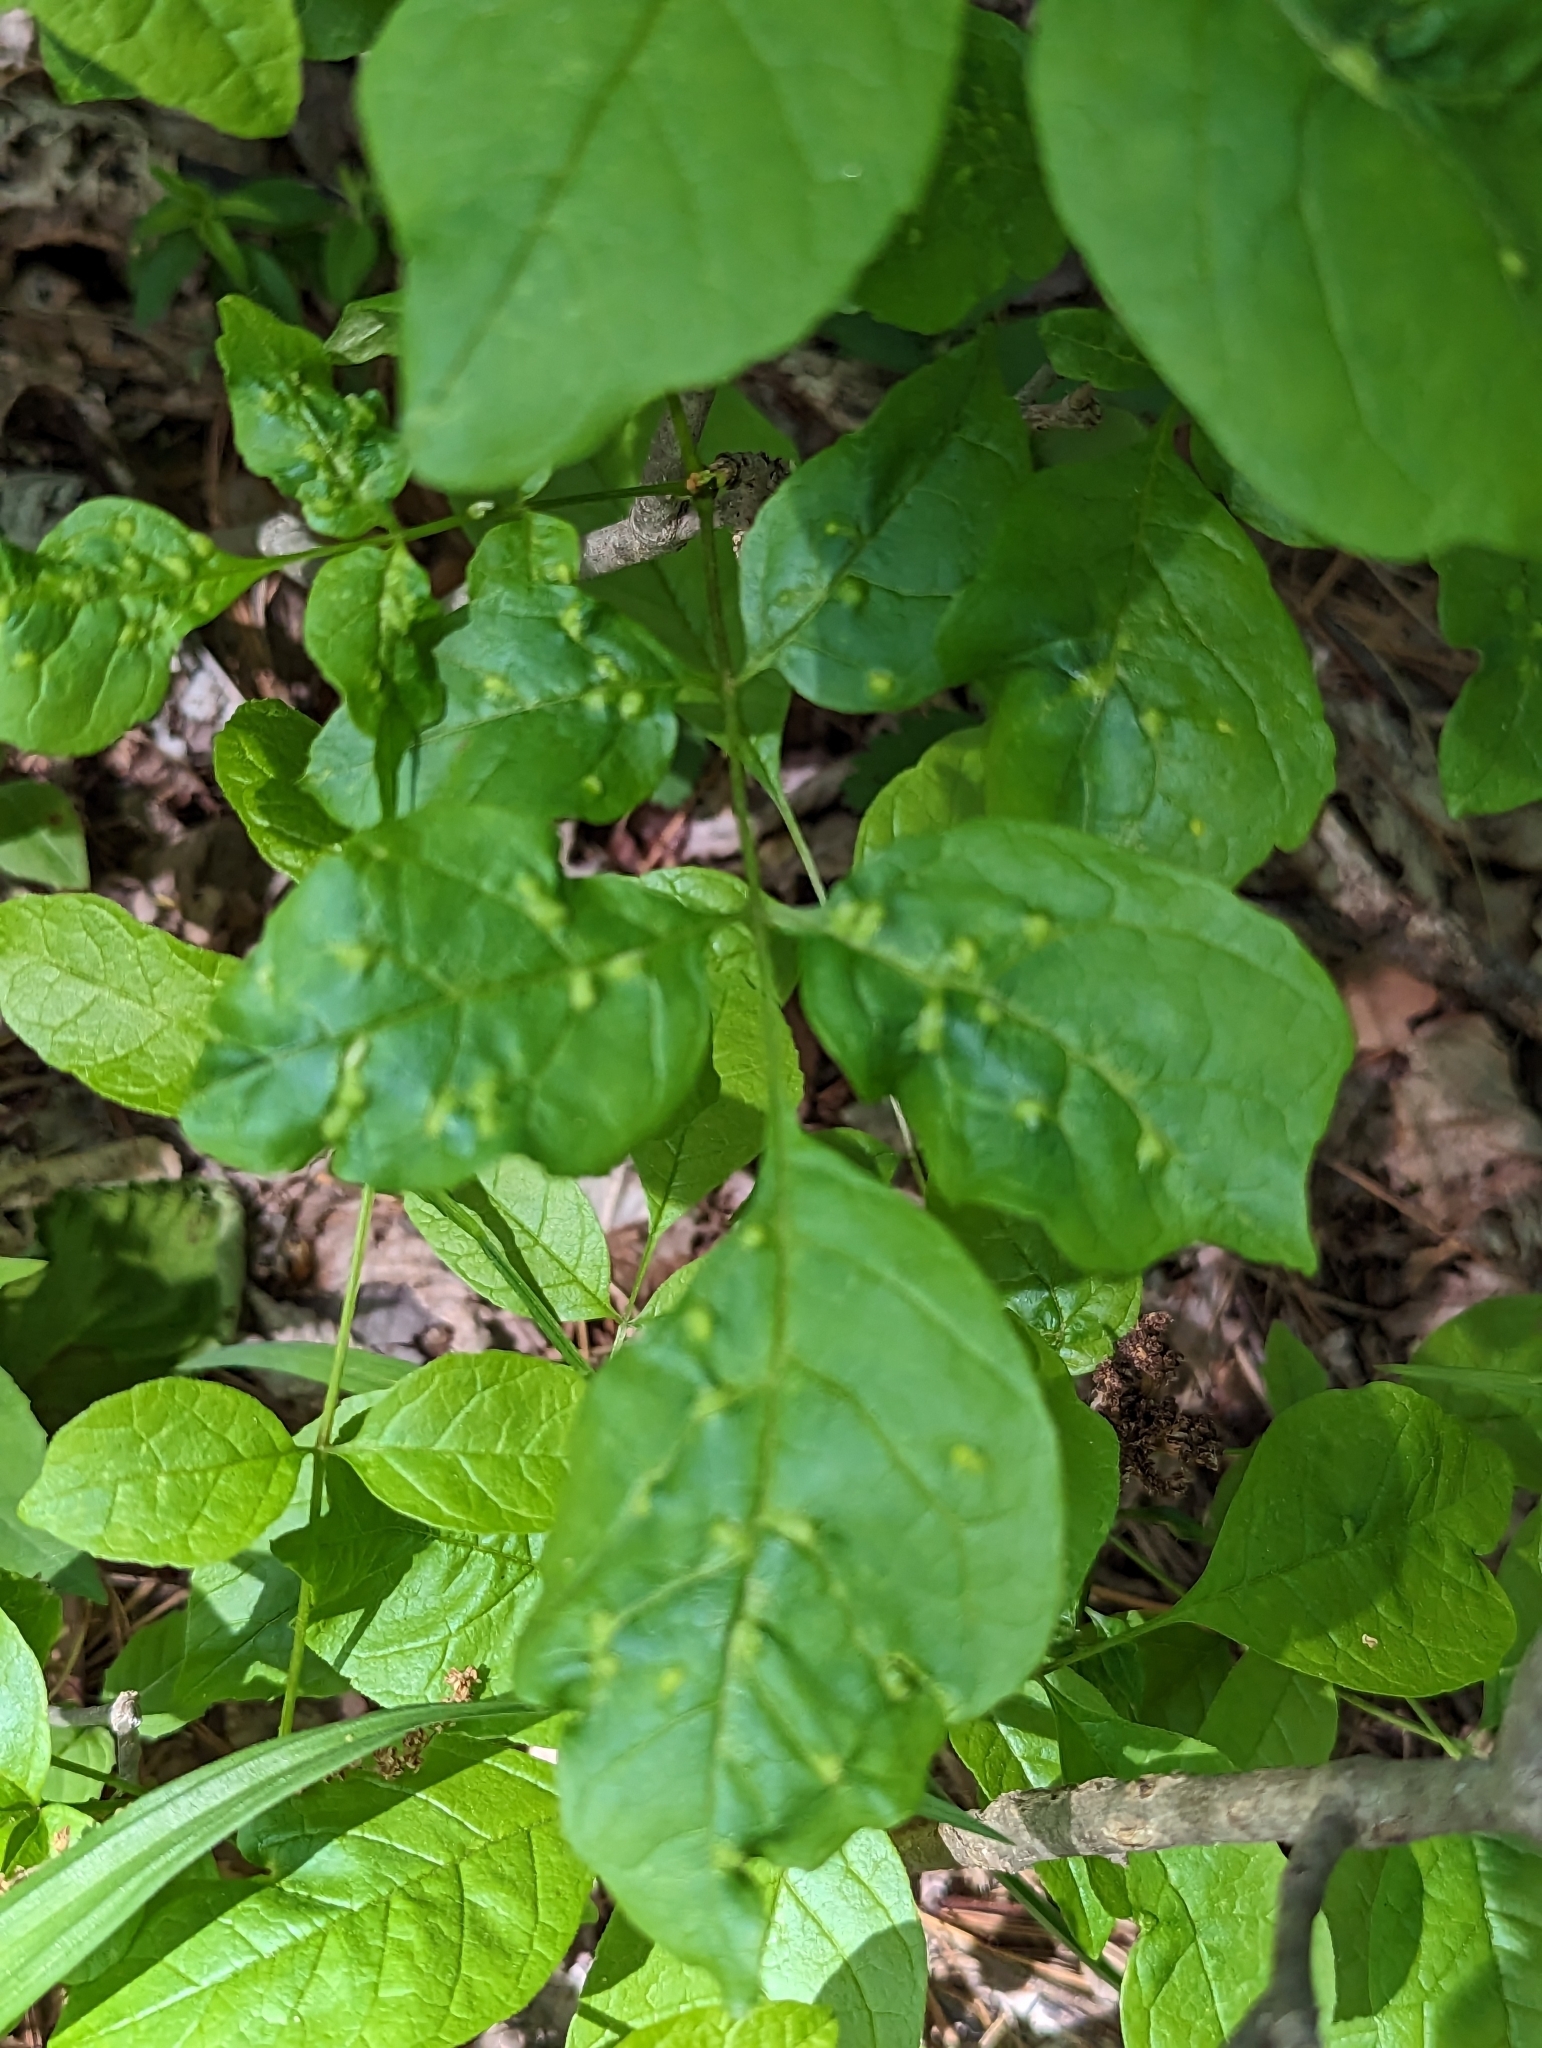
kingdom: Animalia
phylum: Arthropoda
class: Arachnida
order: Trombidiformes
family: Eriophyidae
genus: Aceria
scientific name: Aceria fraxinicola
